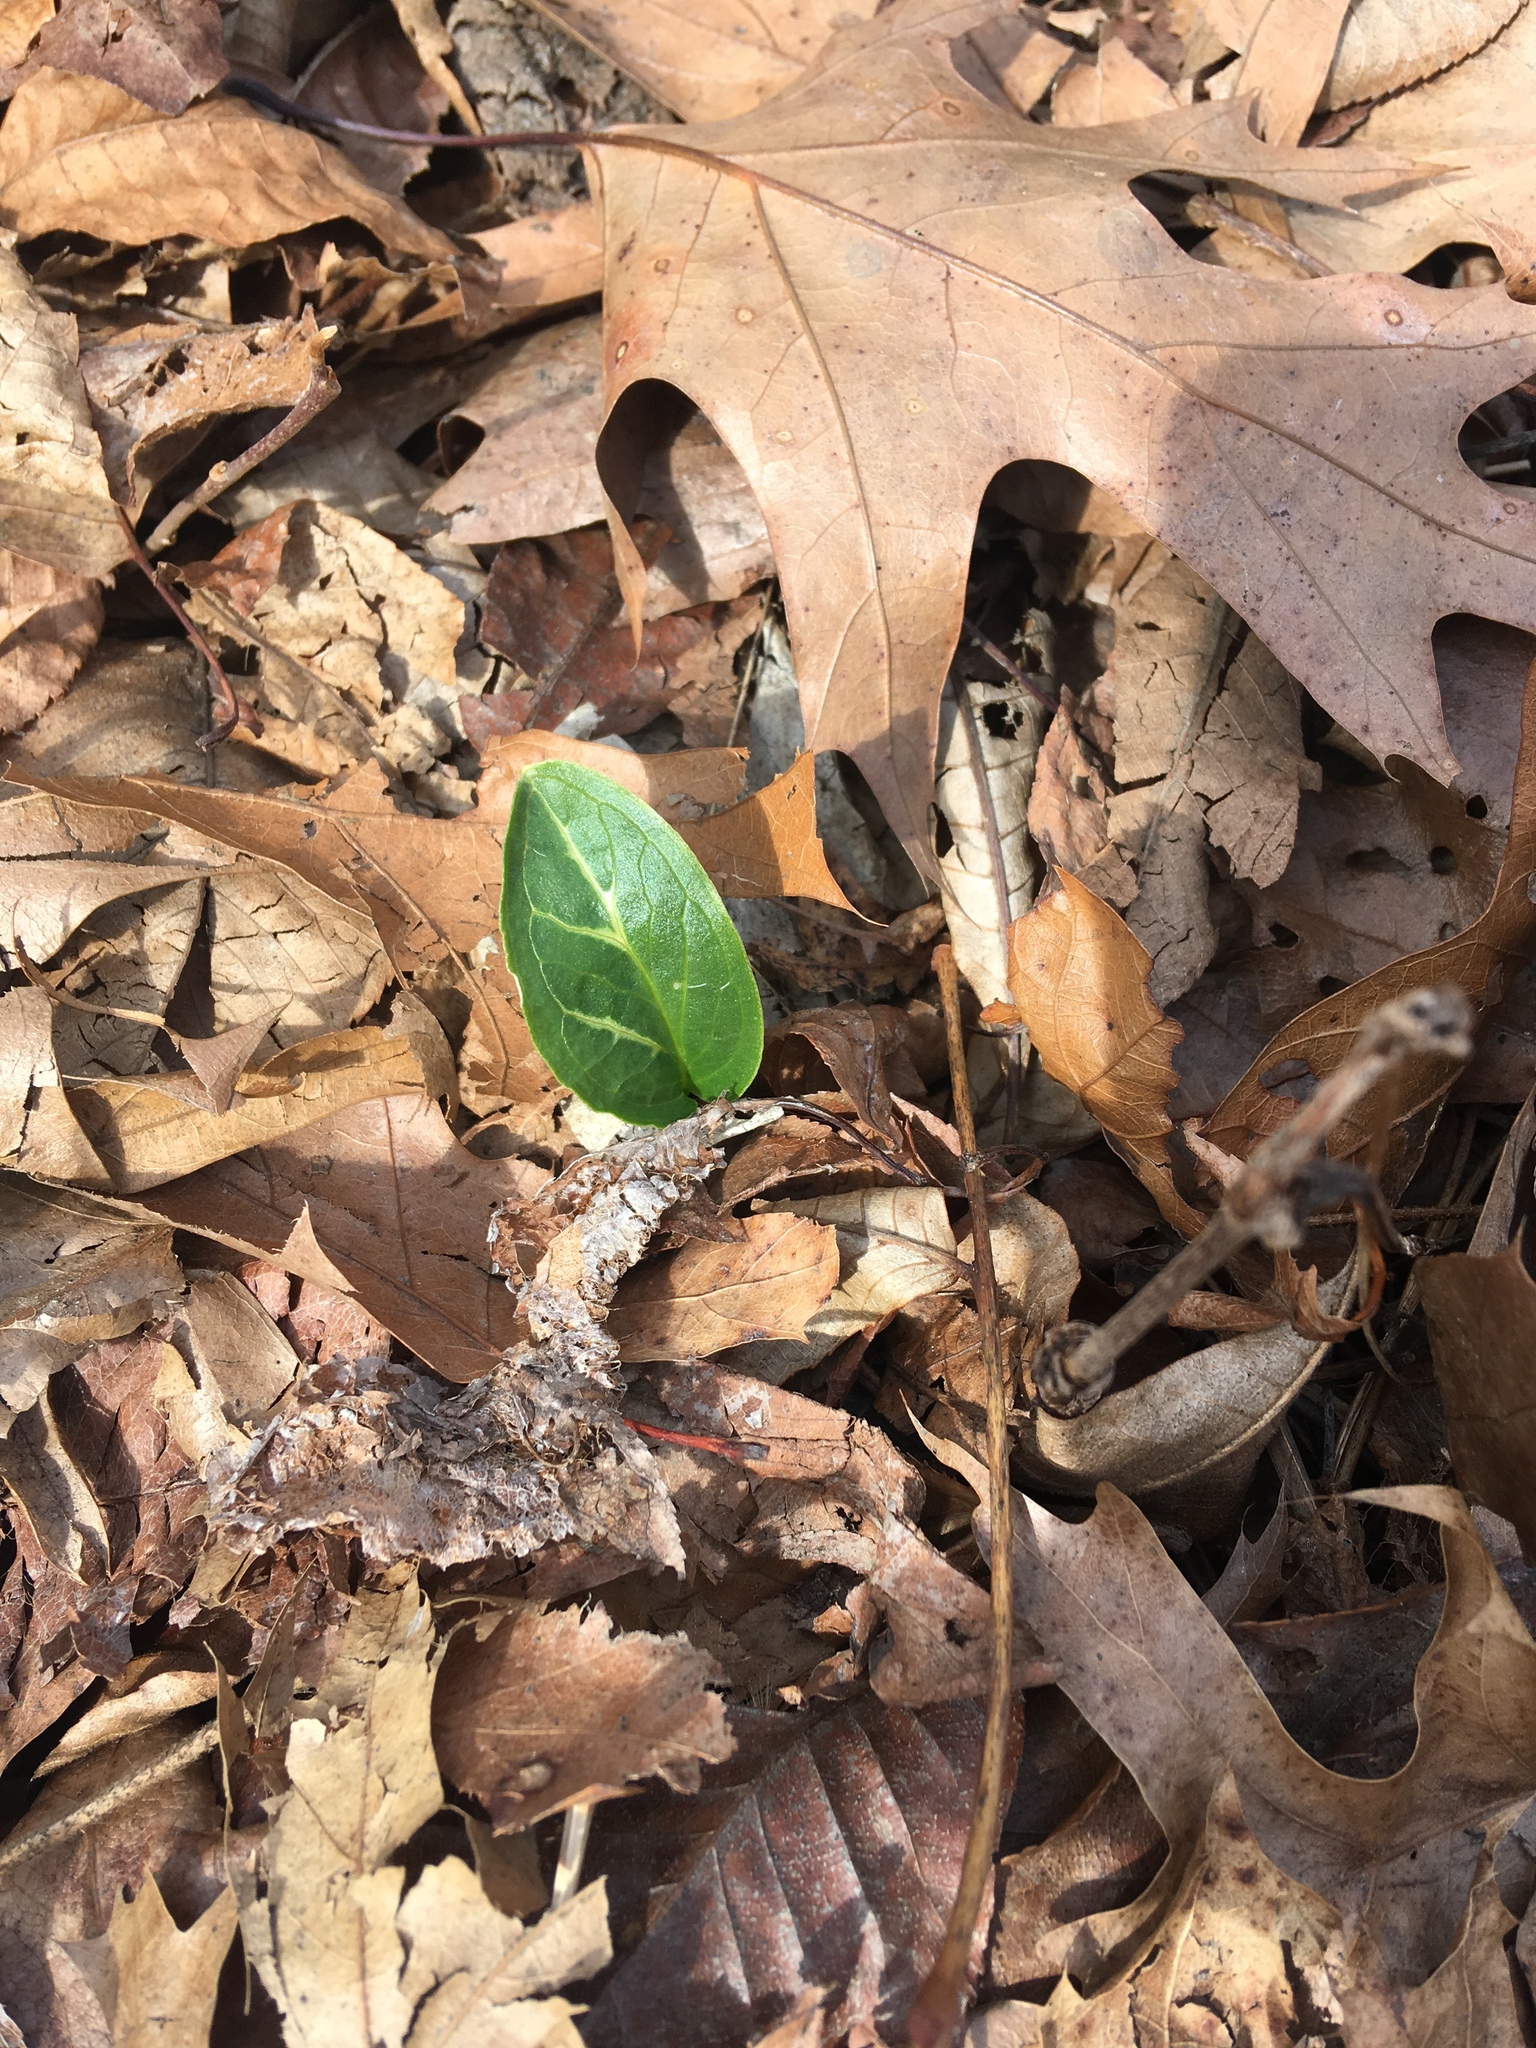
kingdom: Plantae
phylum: Tracheophyta
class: Liliopsida
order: Alismatales
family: Araceae
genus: Arum
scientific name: Arum italicum
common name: Italian lords-and-ladies
